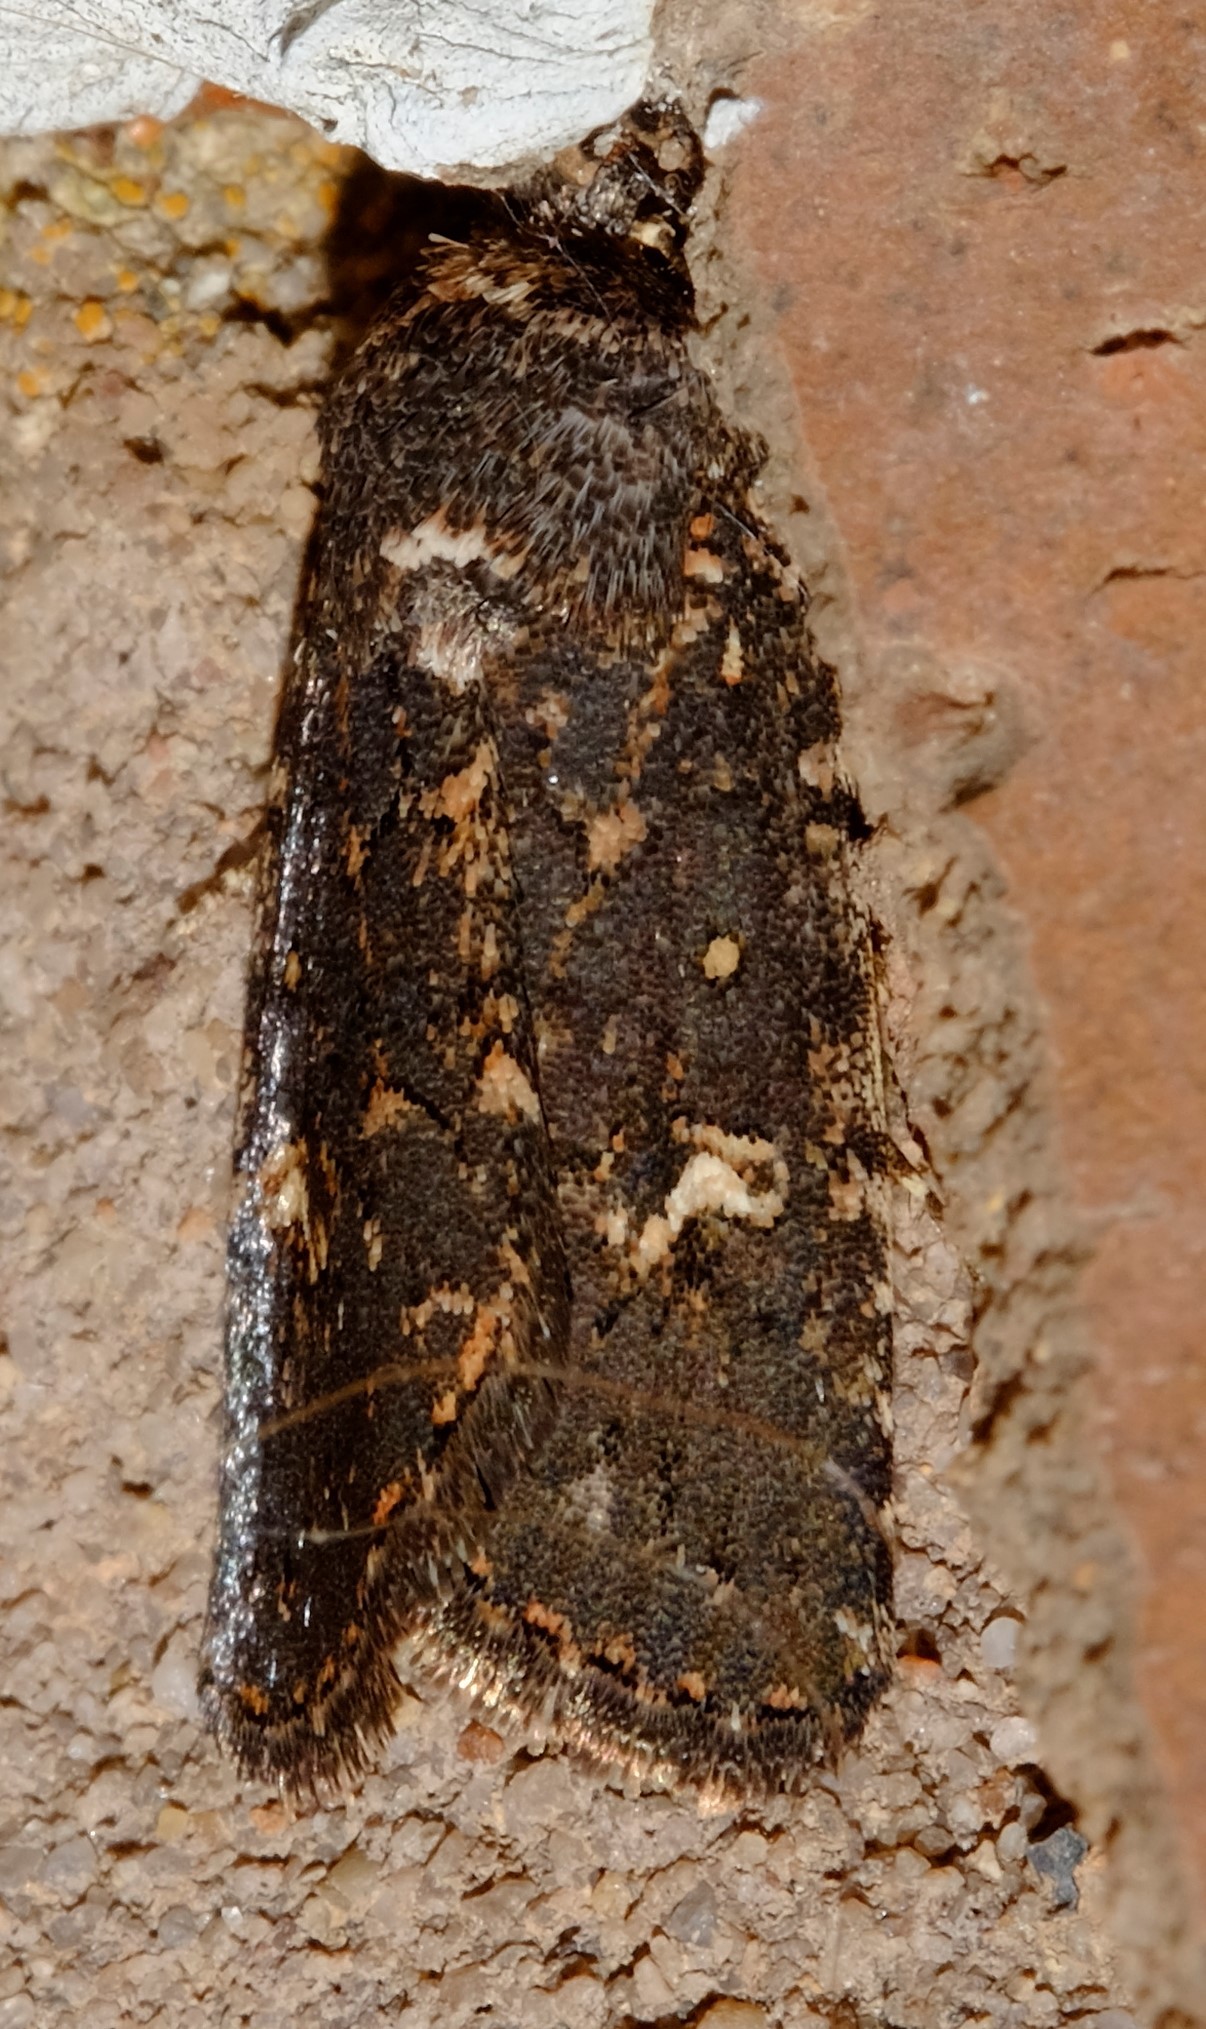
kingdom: Animalia
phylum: Arthropoda
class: Insecta
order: Lepidoptera
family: Noctuidae
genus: Proteuxoa
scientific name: Proteuxoa melodora
